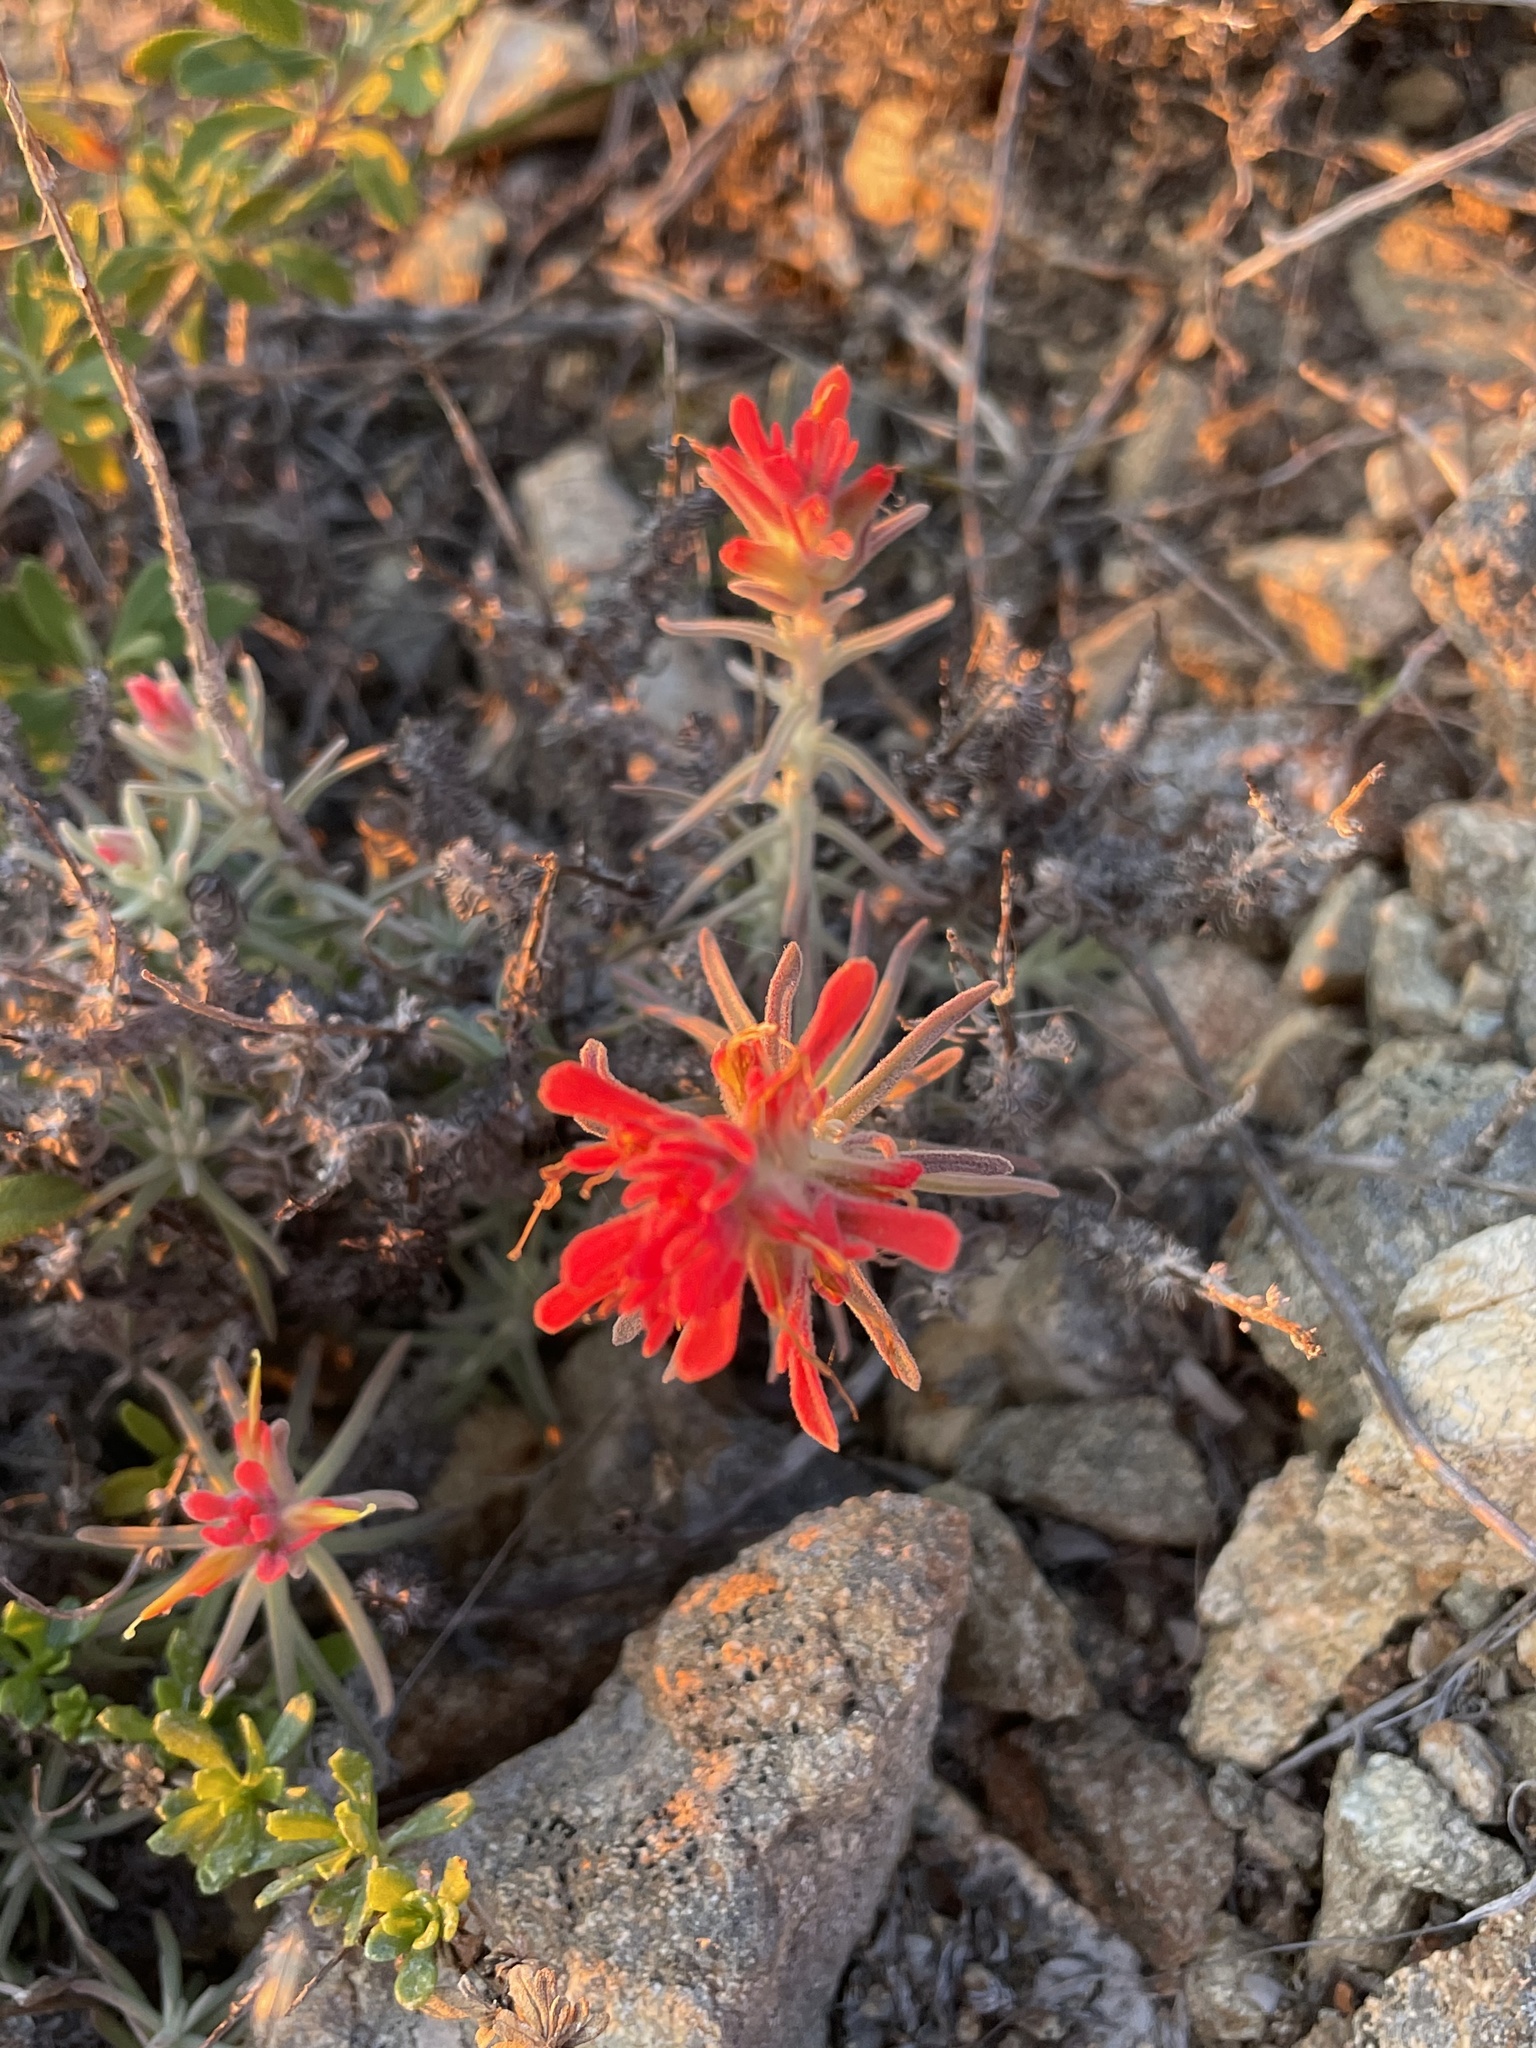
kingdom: Plantae
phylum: Tracheophyta
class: Magnoliopsida
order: Lamiales
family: Orobanchaceae
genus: Castilleja
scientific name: Castilleja foliolosa
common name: Woolly indian paintbrush
